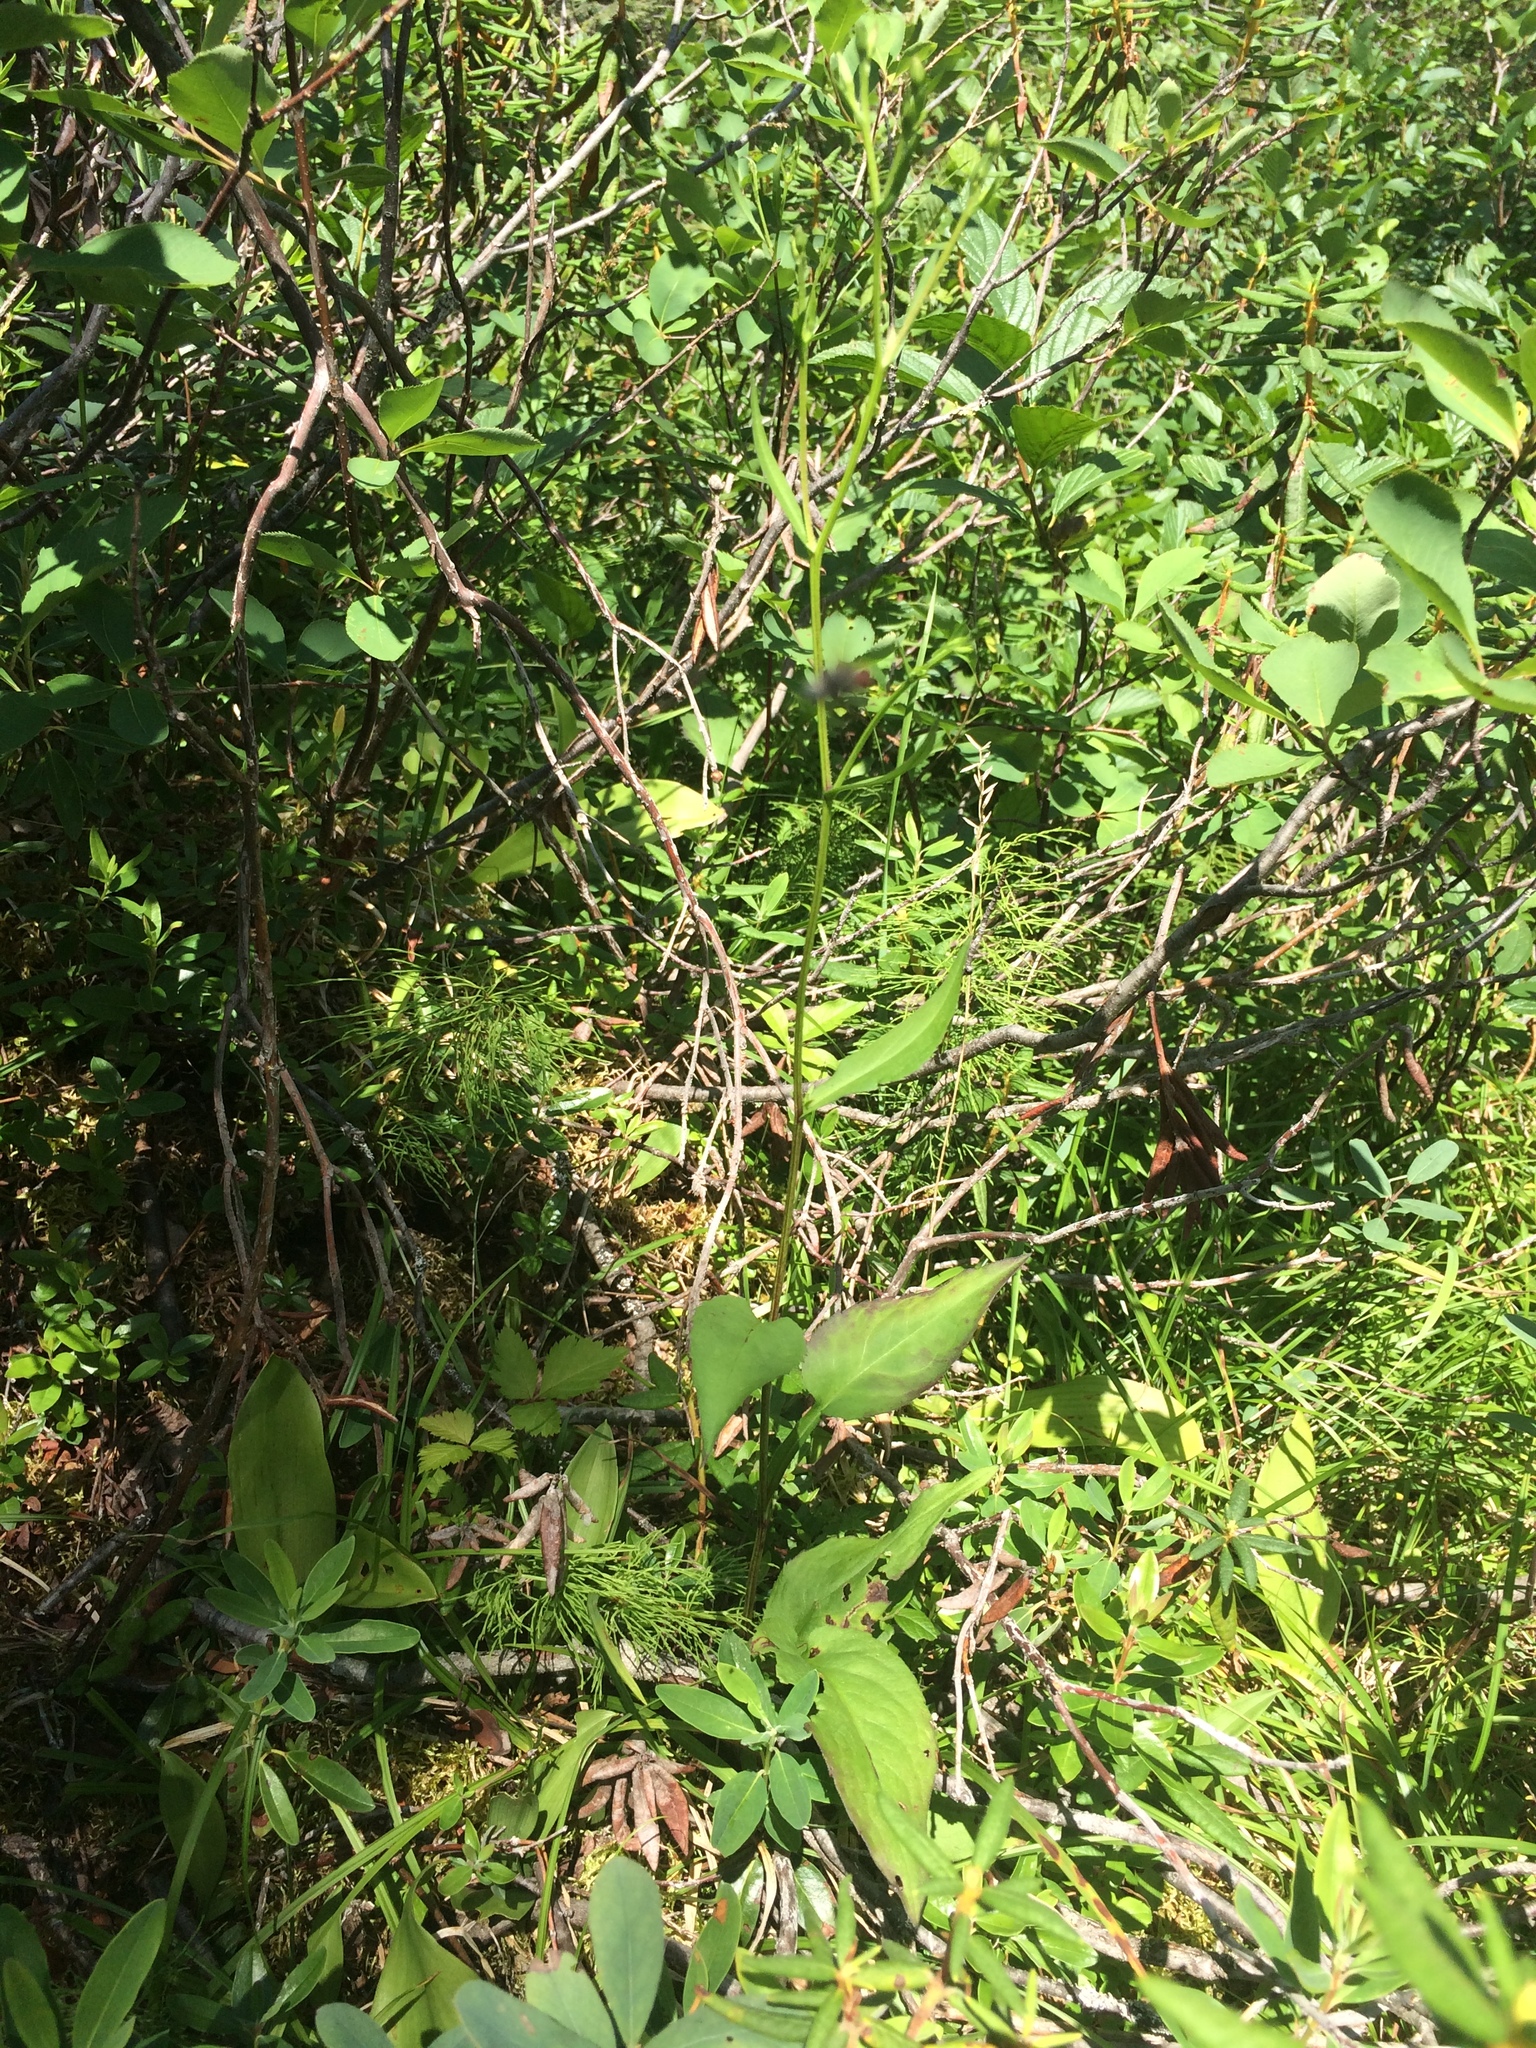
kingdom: Plantae
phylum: Tracheophyta
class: Magnoliopsida
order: Asterales
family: Asteraceae
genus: Symphyotrichum
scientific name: Symphyotrichum ciliolatum
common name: Fringed blue aster
